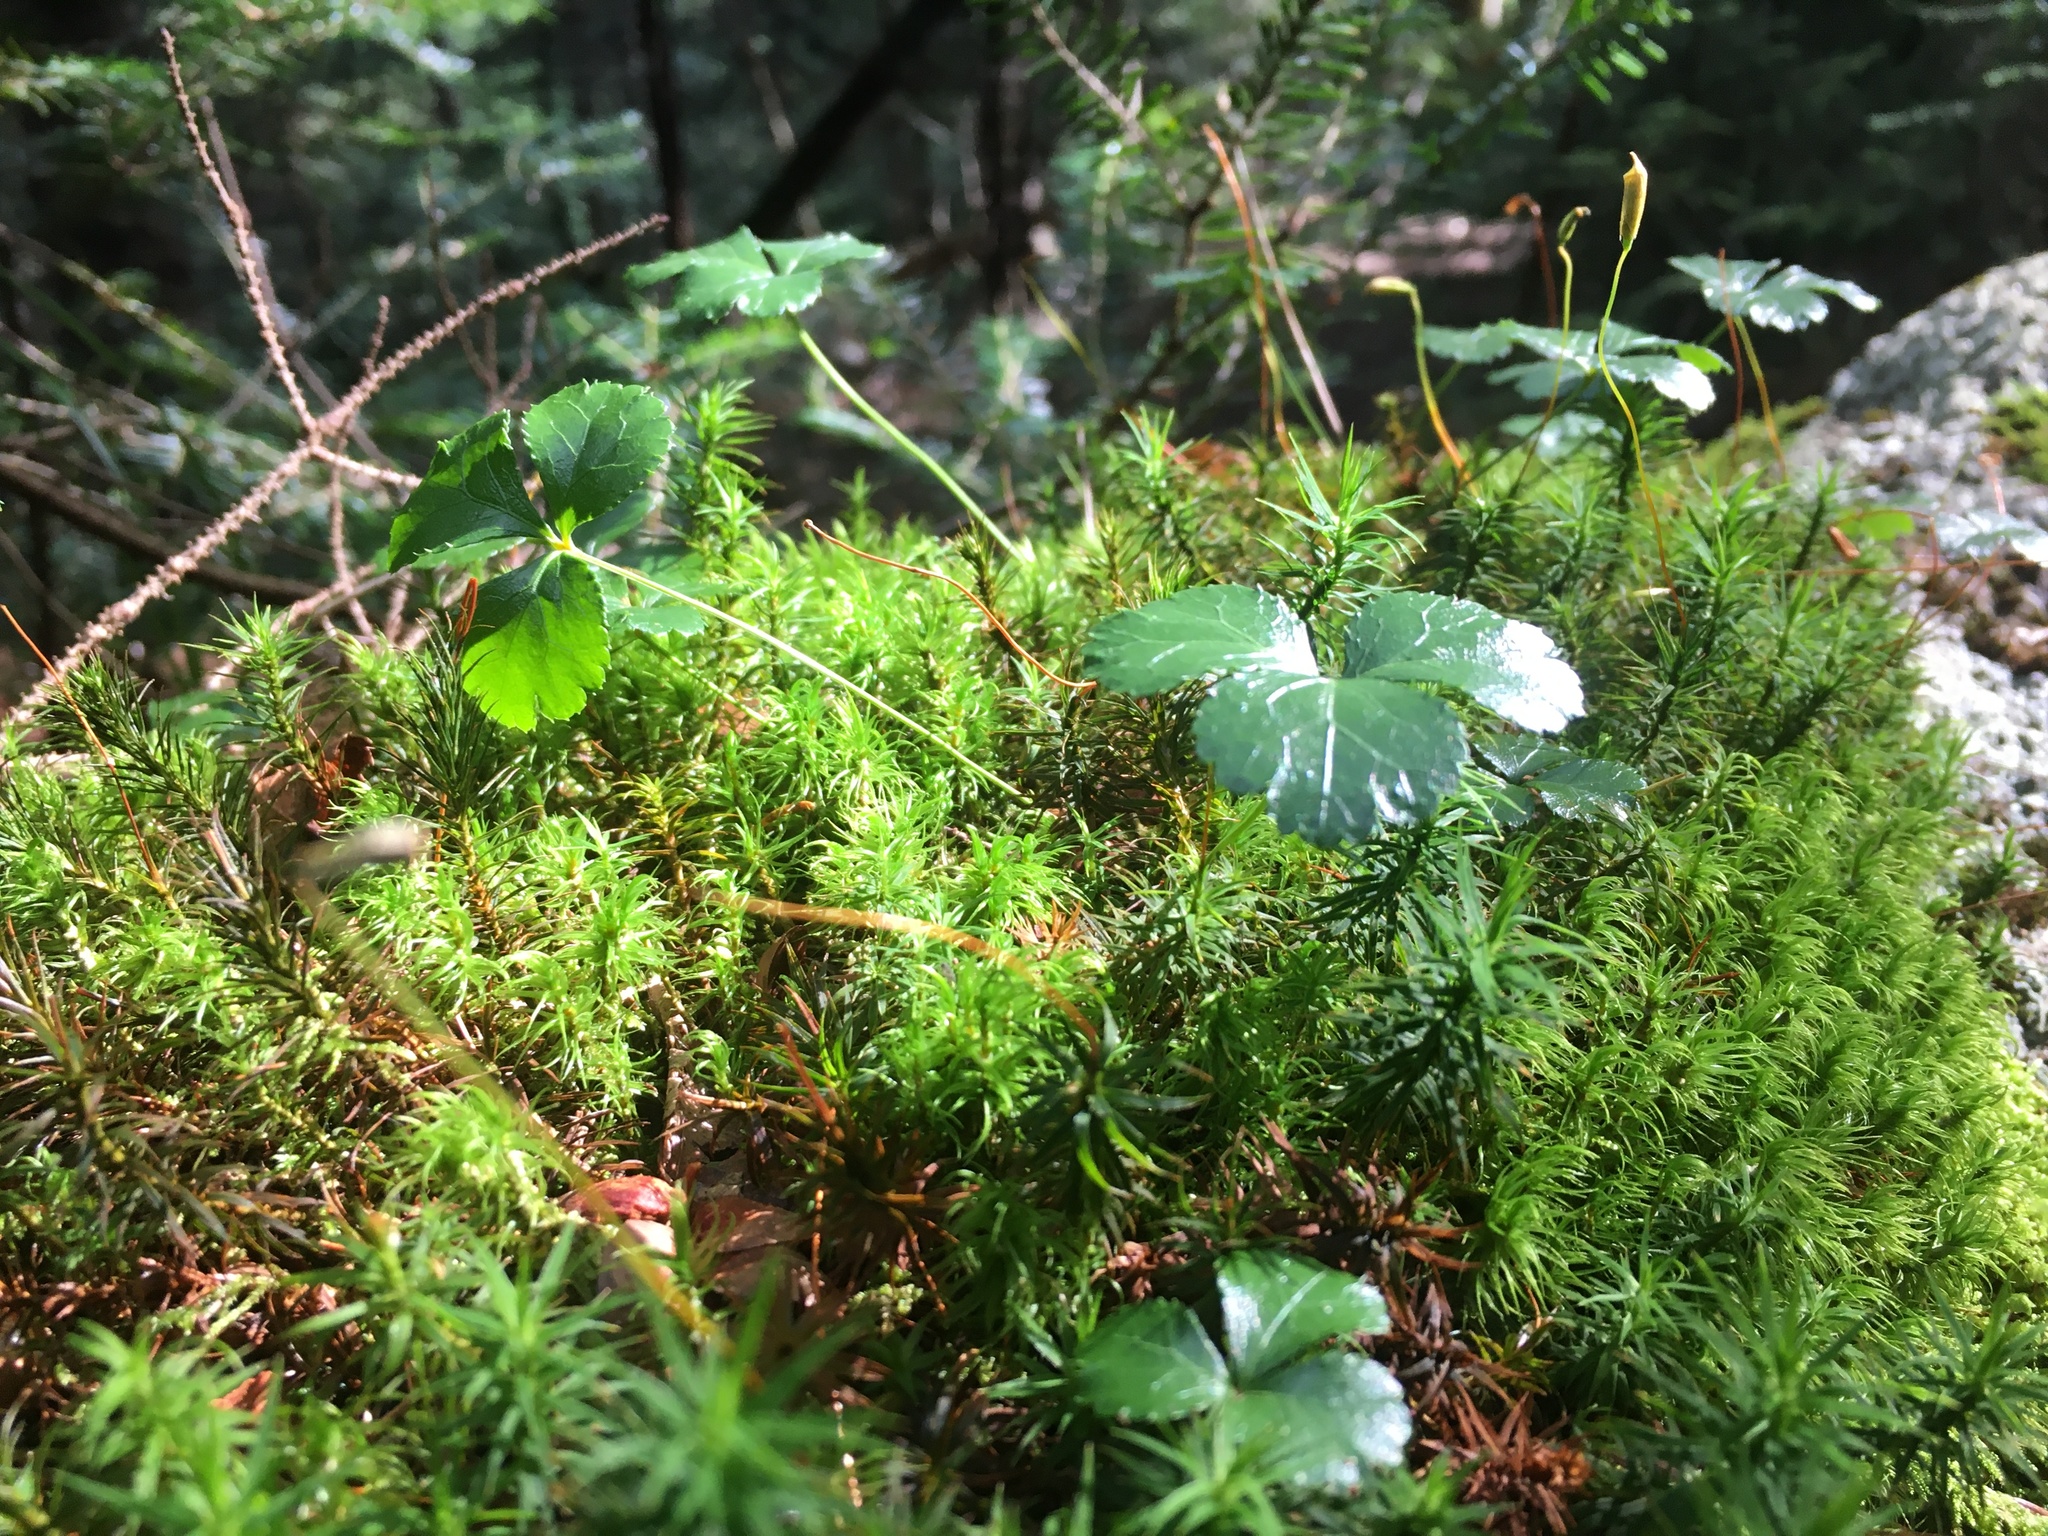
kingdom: Plantae
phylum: Tracheophyta
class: Magnoliopsida
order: Ranunculales
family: Ranunculaceae
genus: Coptis
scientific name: Coptis trifolia
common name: Canker-root
